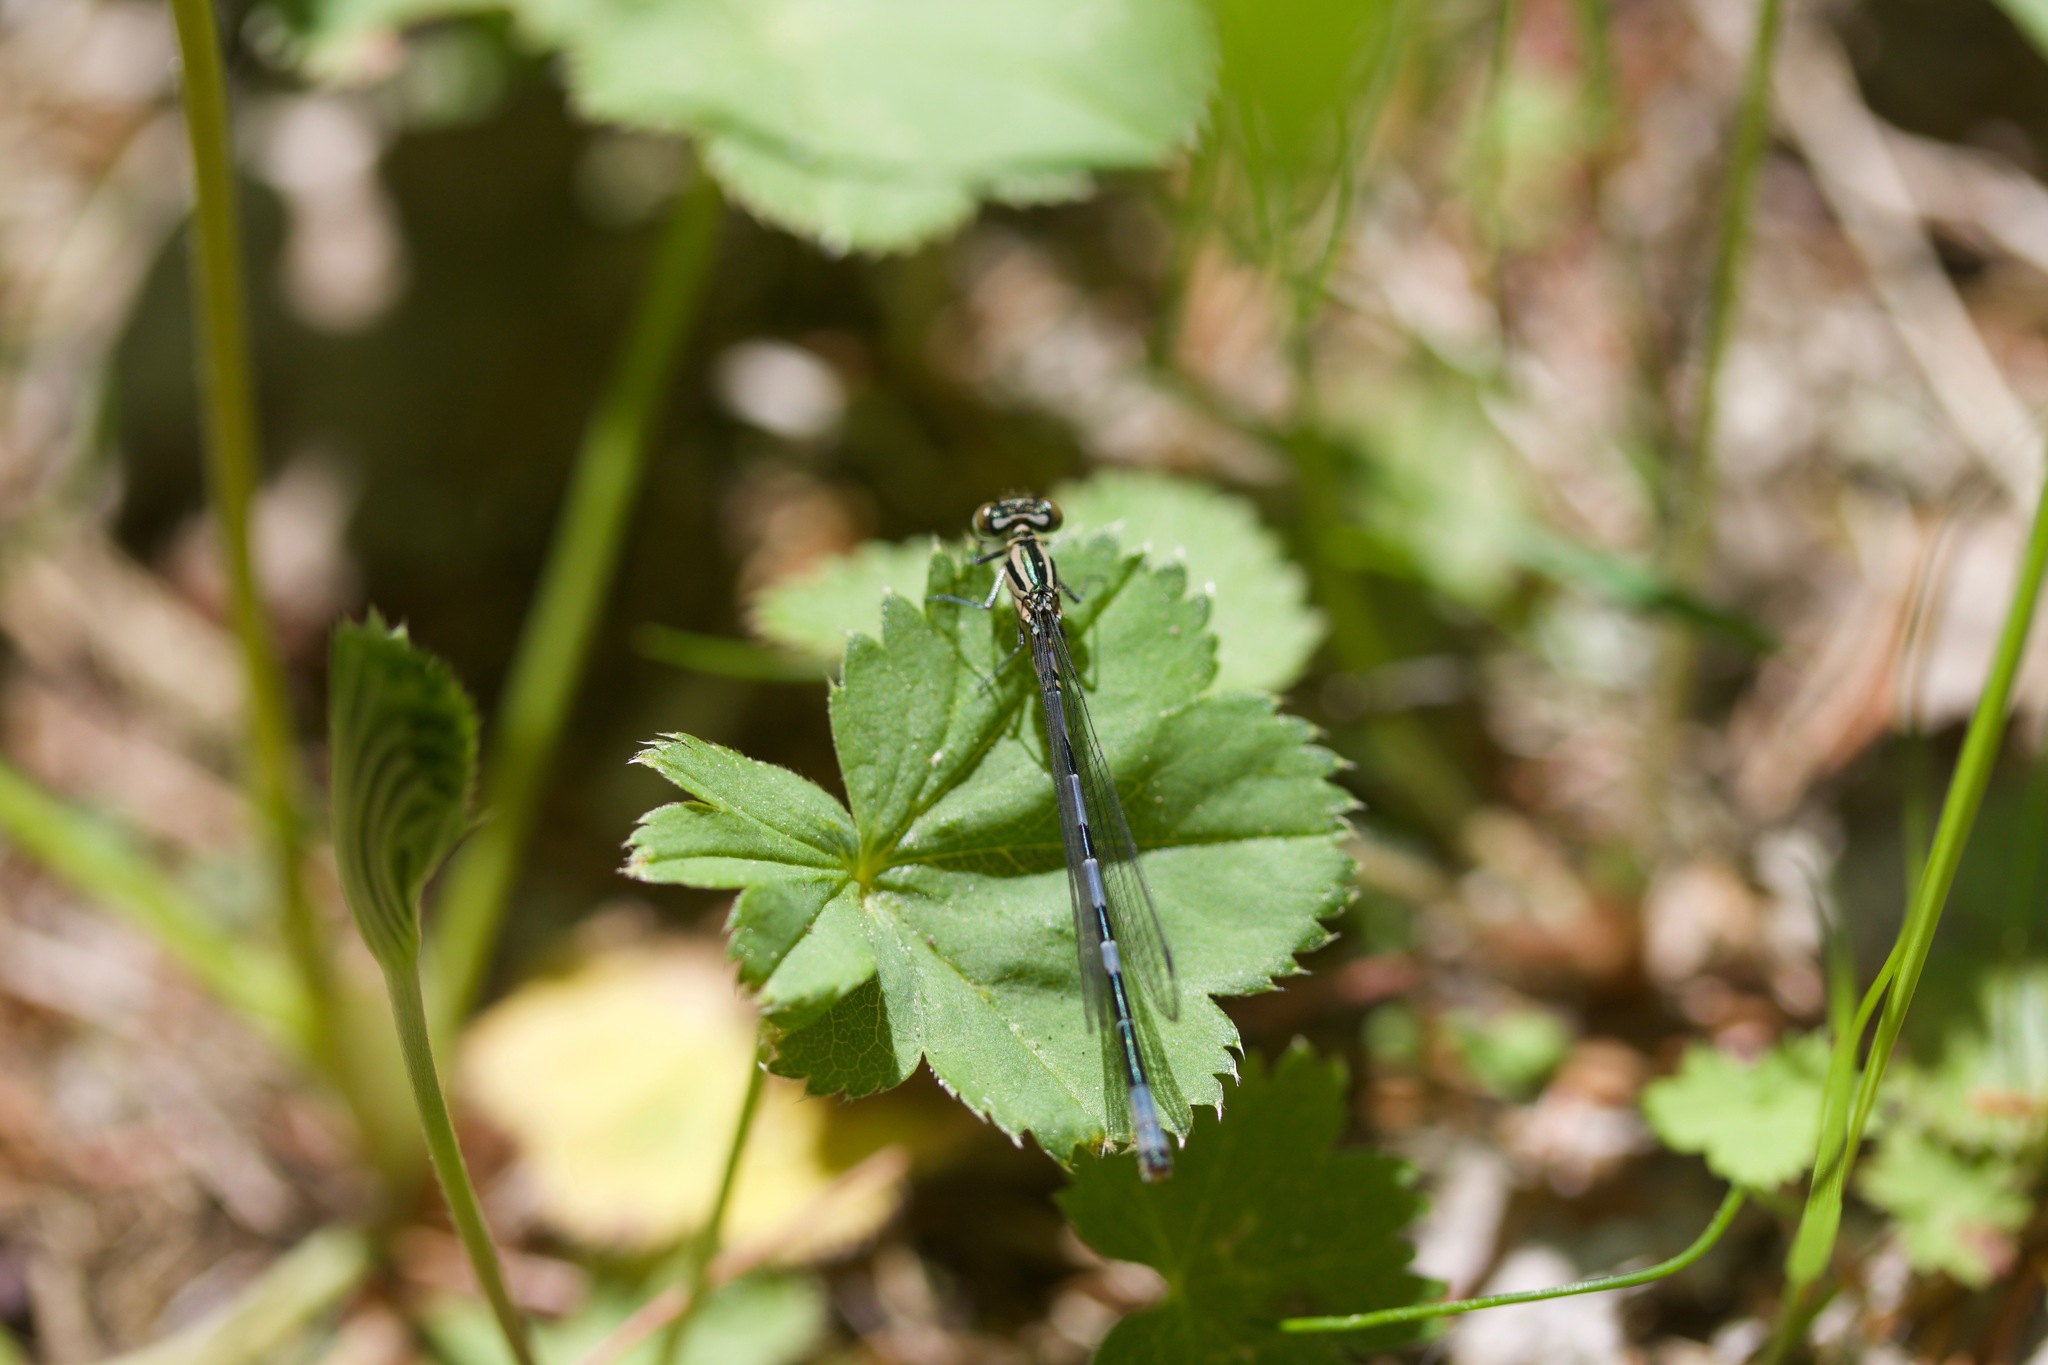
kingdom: Animalia
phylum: Arthropoda
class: Insecta
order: Odonata
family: Coenagrionidae
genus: Coenagrion
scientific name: Coenagrion hastulatum
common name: Spearhead bluet
